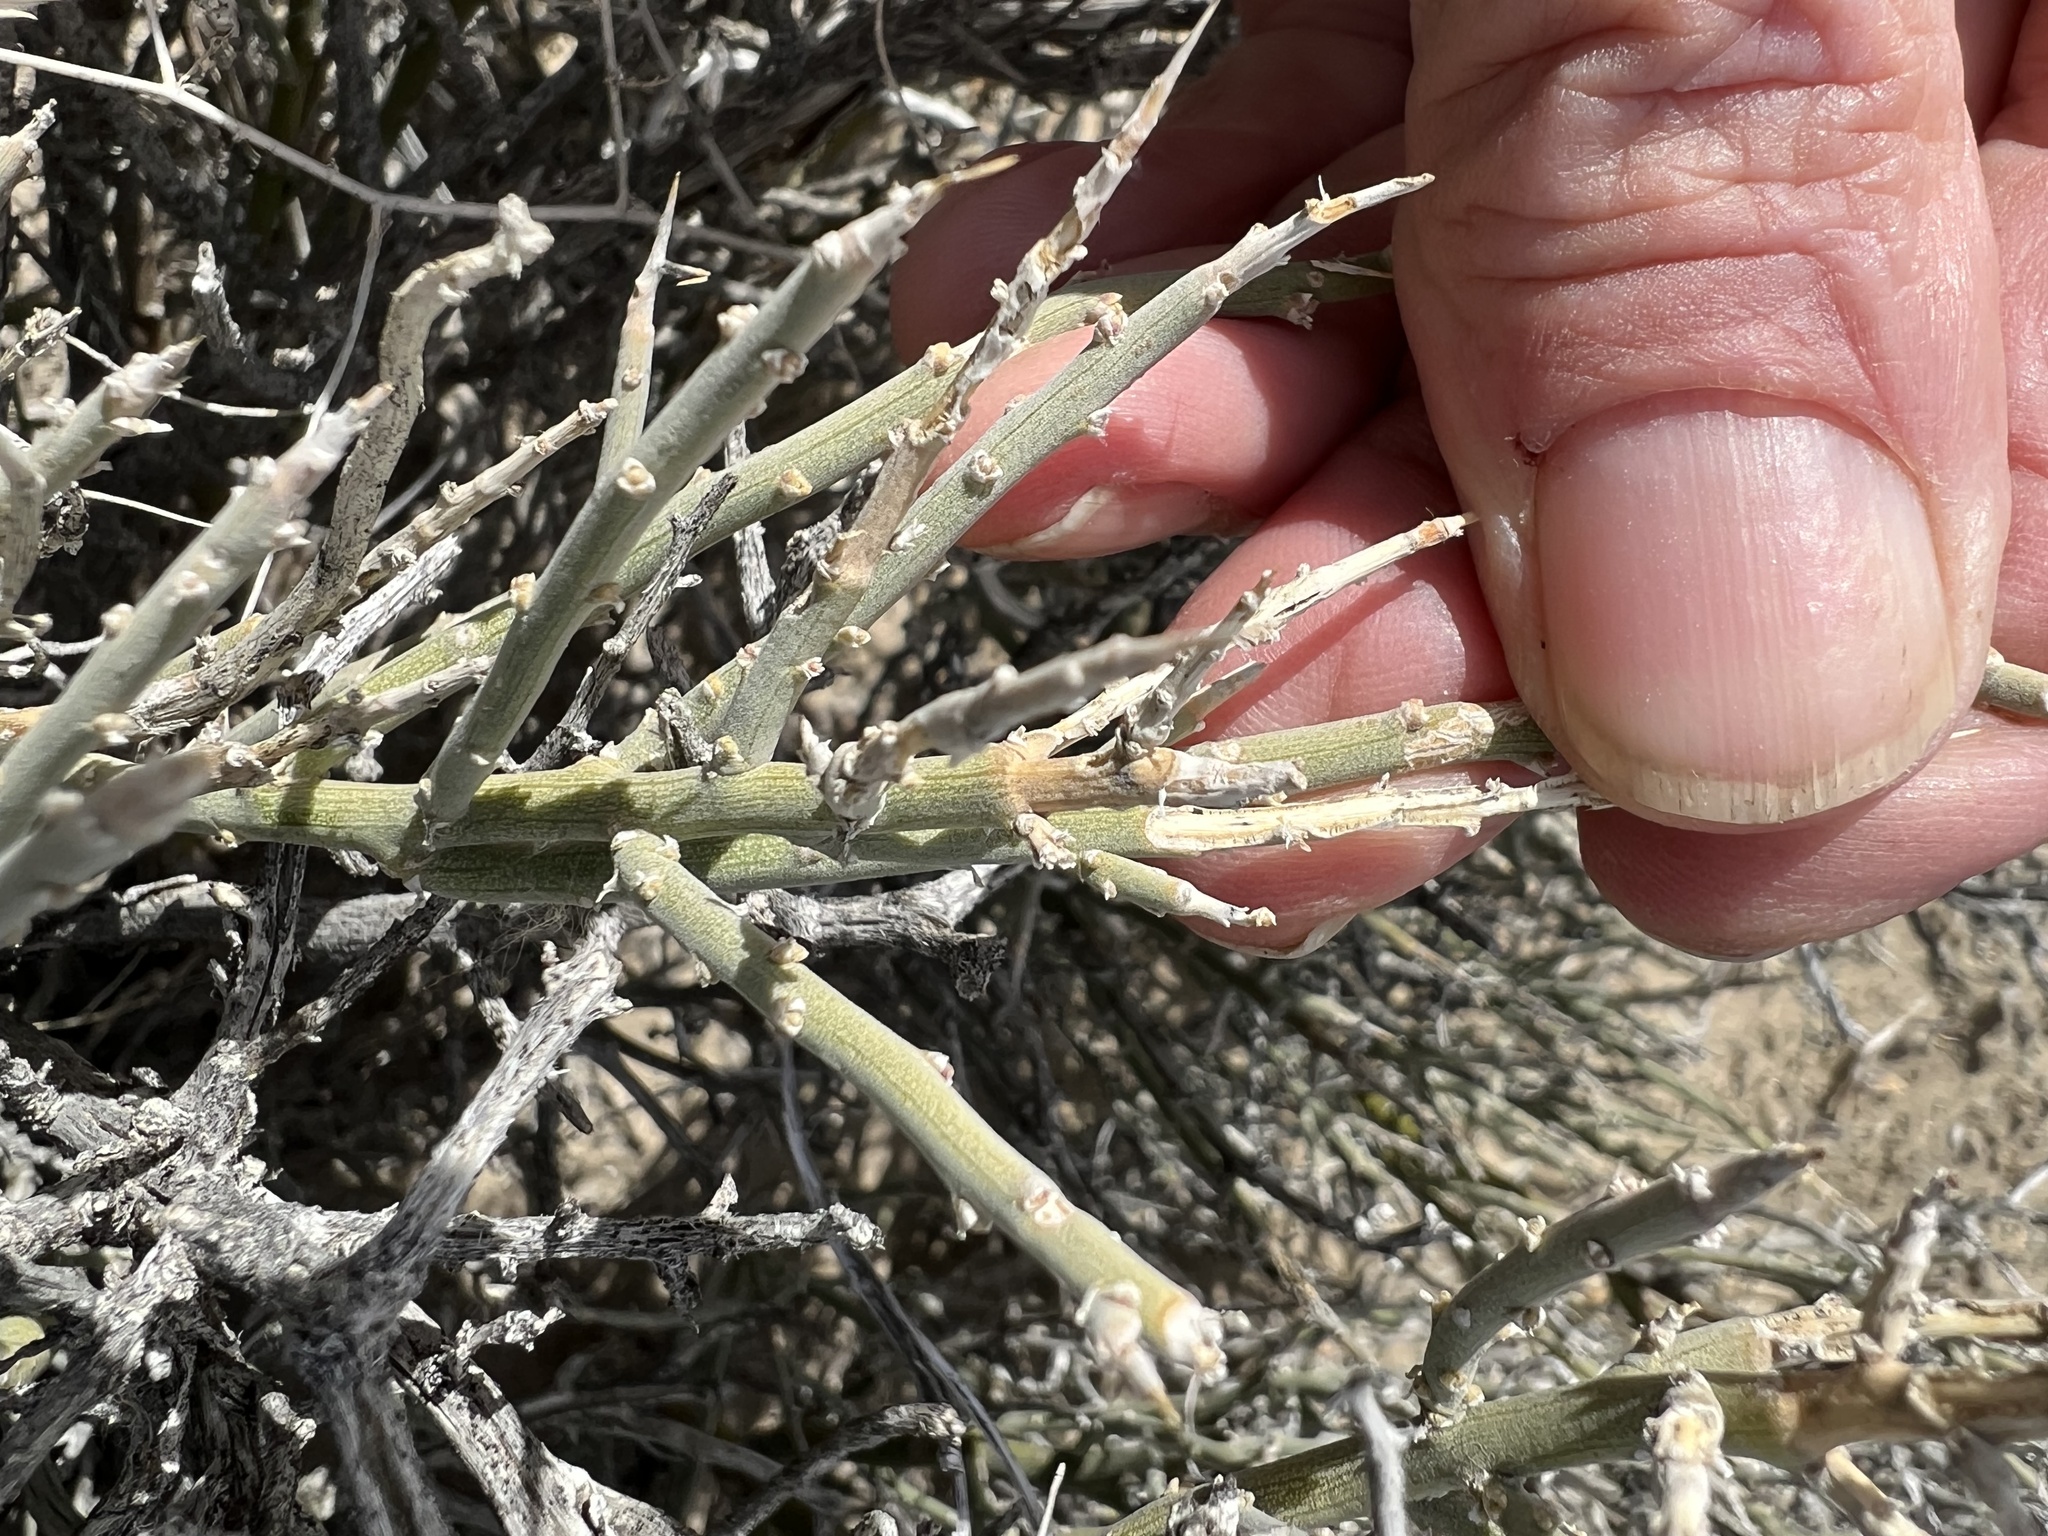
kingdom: Plantae
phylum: Tracheophyta
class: Magnoliopsida
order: Lamiales
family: Oleaceae
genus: Menodora
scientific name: Menodora spinescens
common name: Spiny menodora
